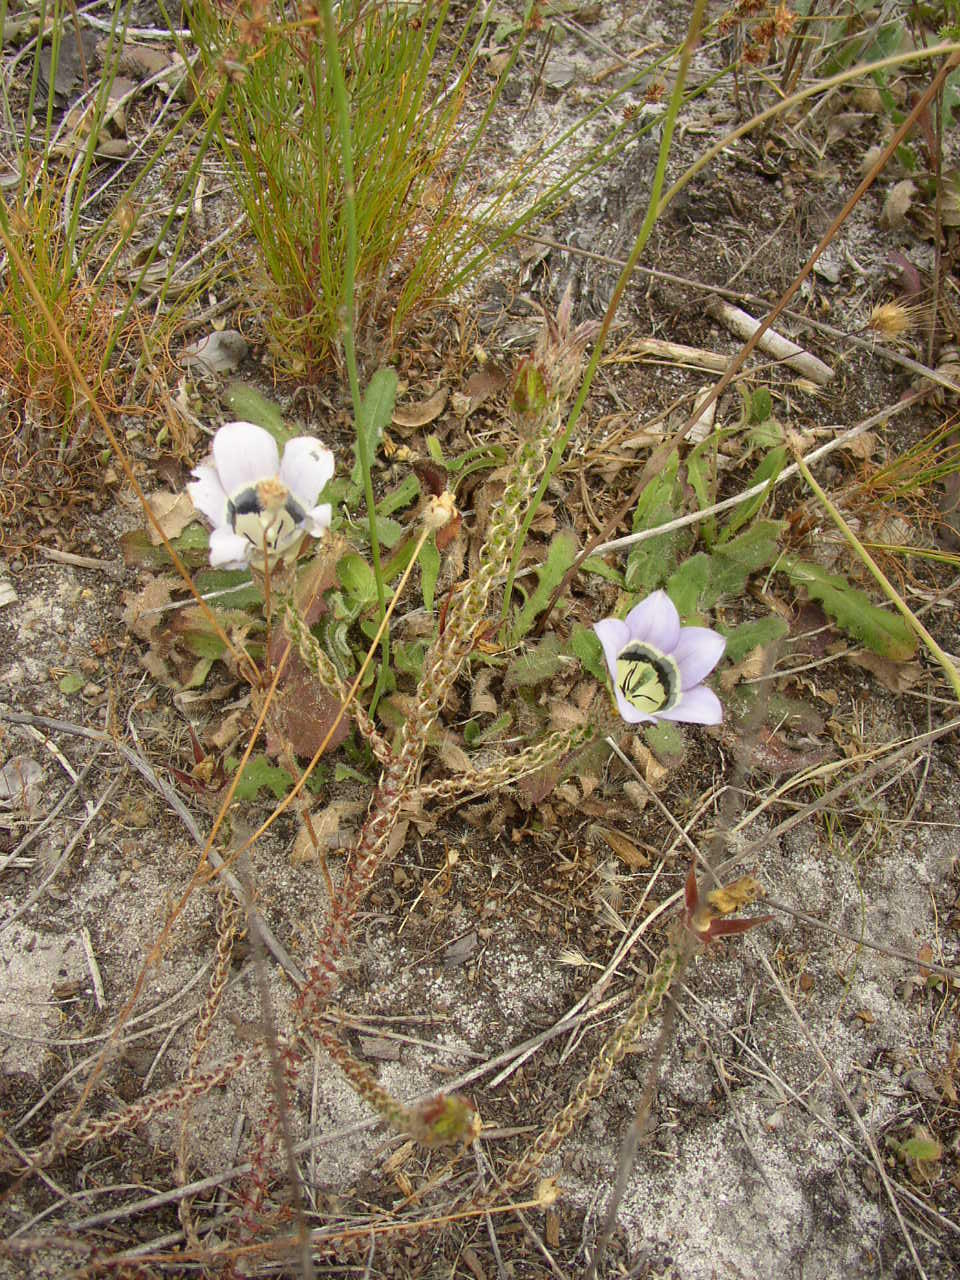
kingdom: Plantae
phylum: Tracheophyta
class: Magnoliopsida
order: Asterales
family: Campanulaceae
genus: Roella
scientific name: Roella ciliata
